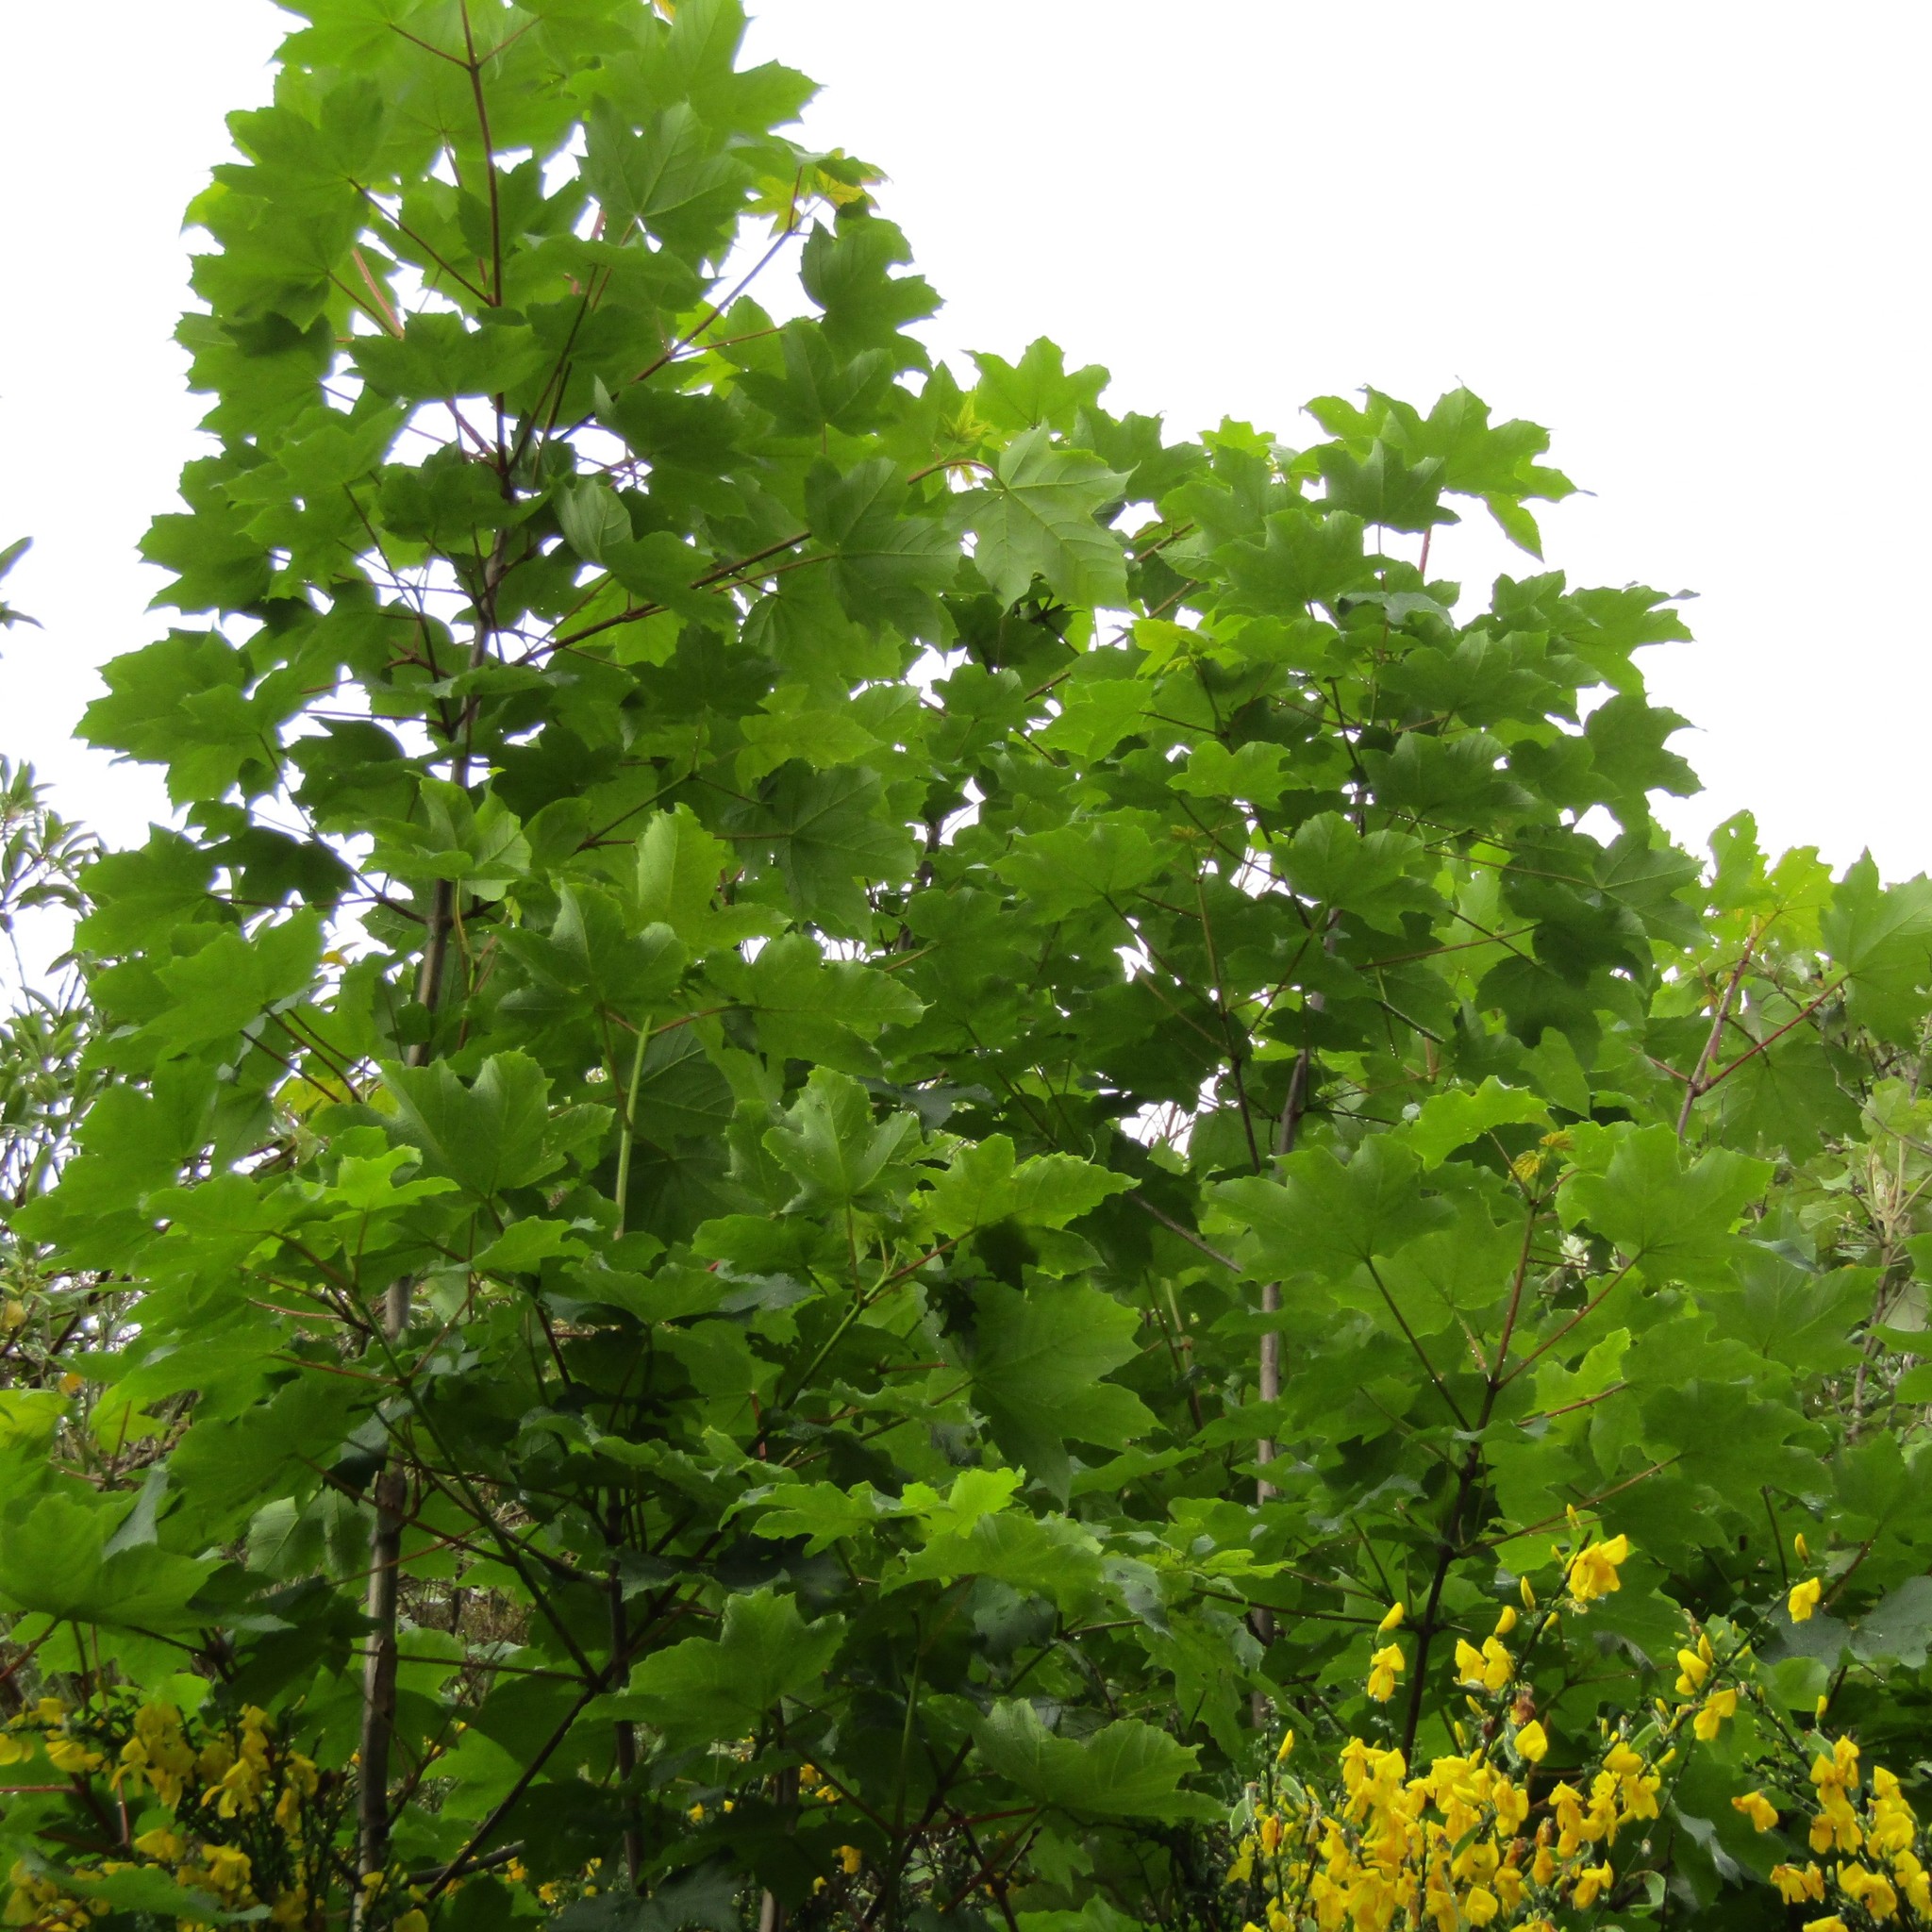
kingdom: Plantae
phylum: Tracheophyta
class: Magnoliopsida
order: Sapindales
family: Sapindaceae
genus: Acer
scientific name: Acer pseudoplatanus
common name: Sycamore
